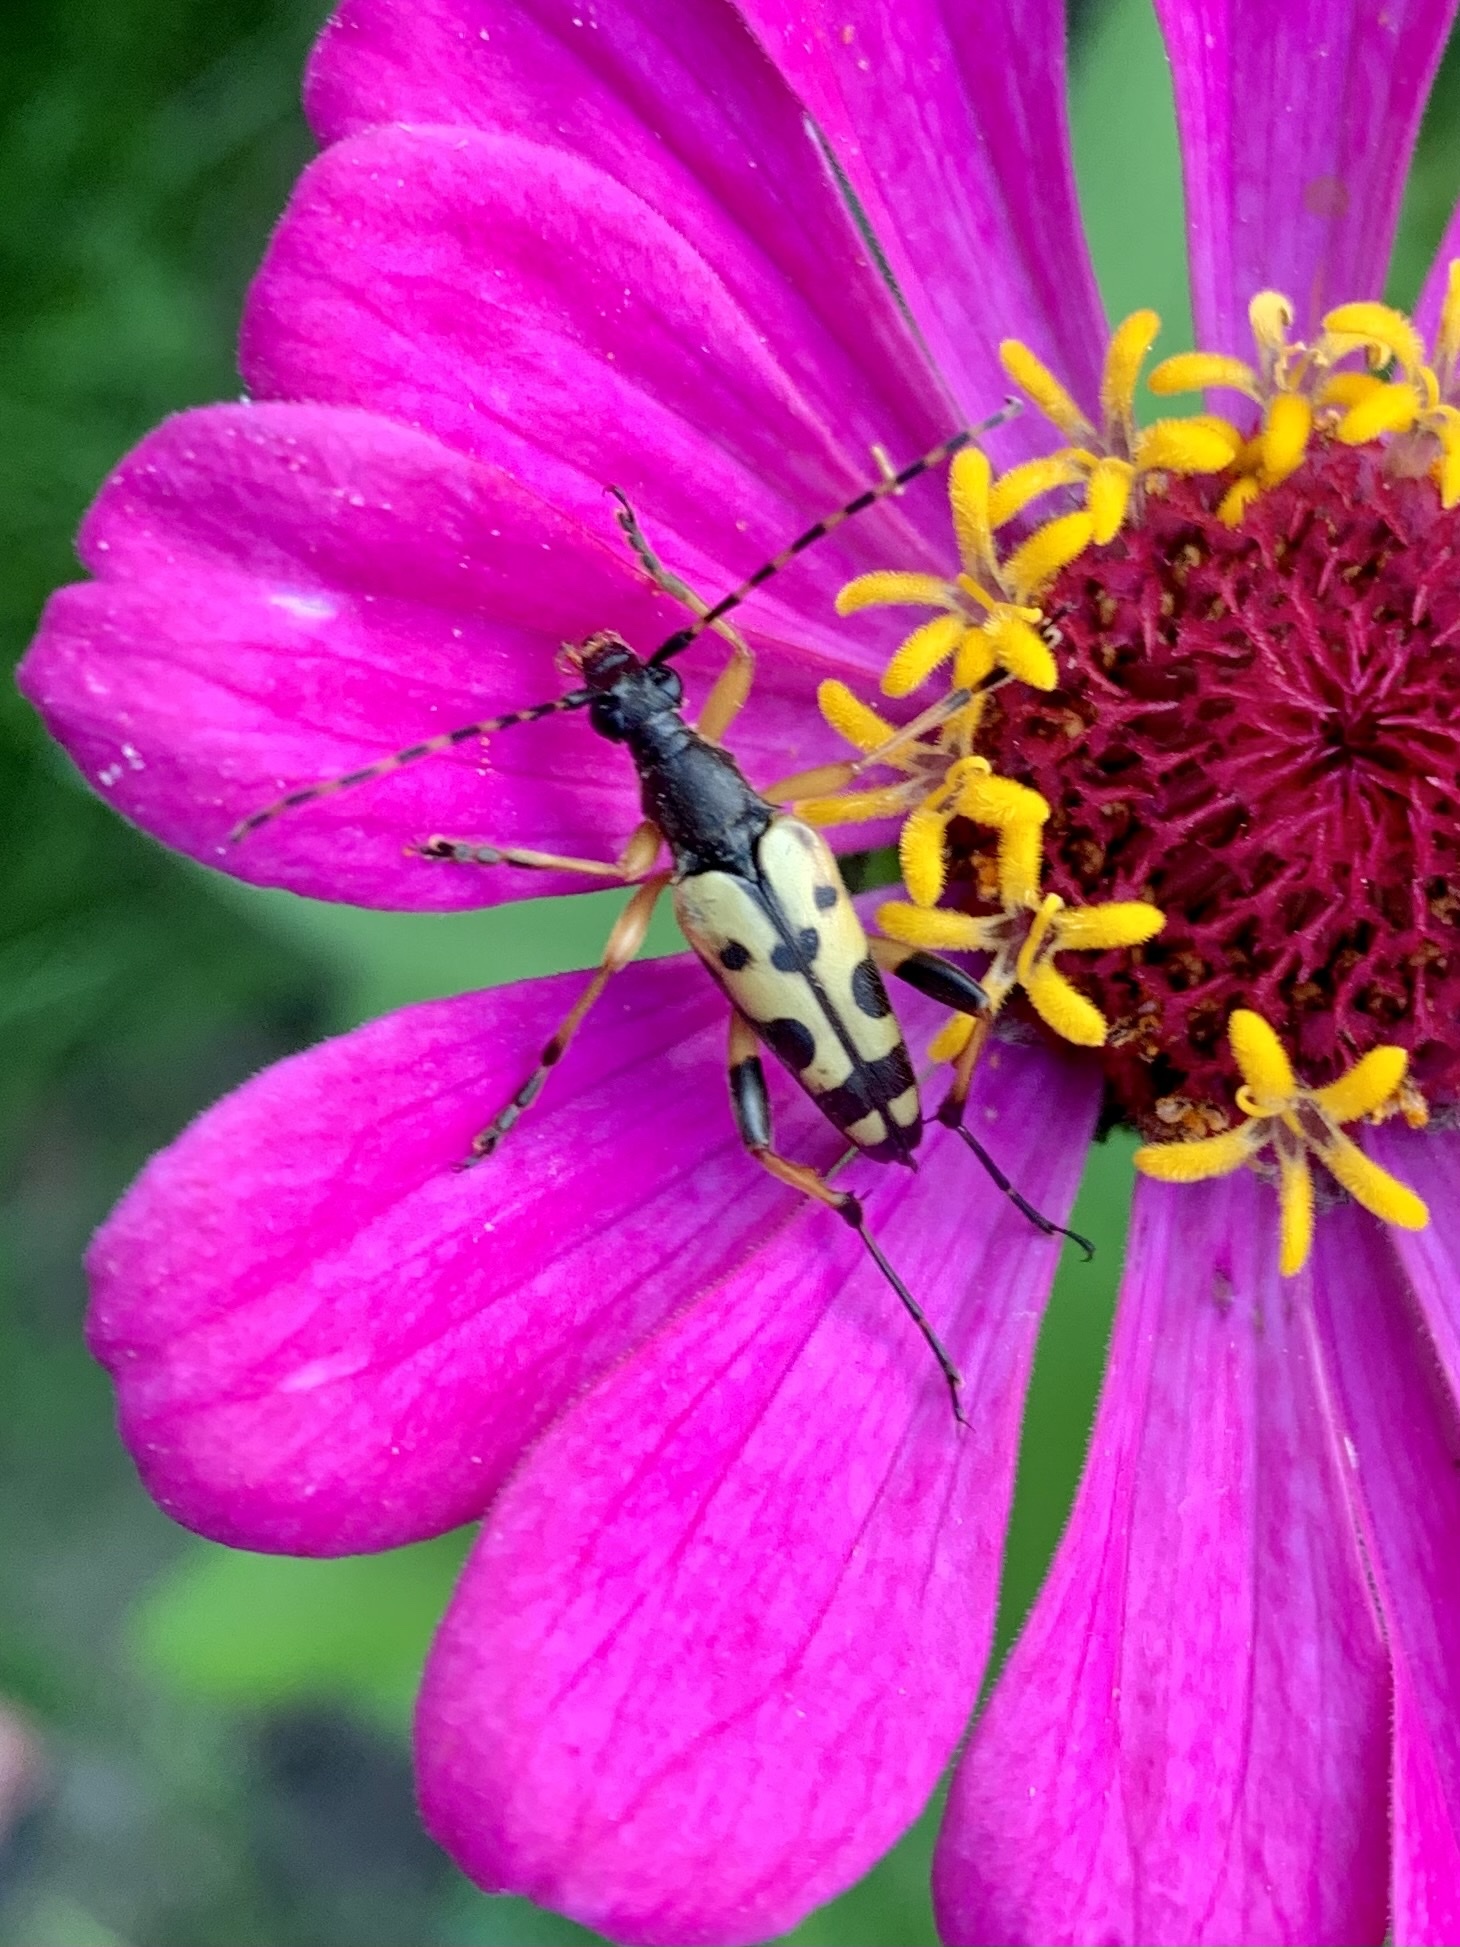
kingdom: Animalia
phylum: Arthropoda
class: Insecta
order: Coleoptera
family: Cerambycidae
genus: Rutpela
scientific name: Rutpela maculata
